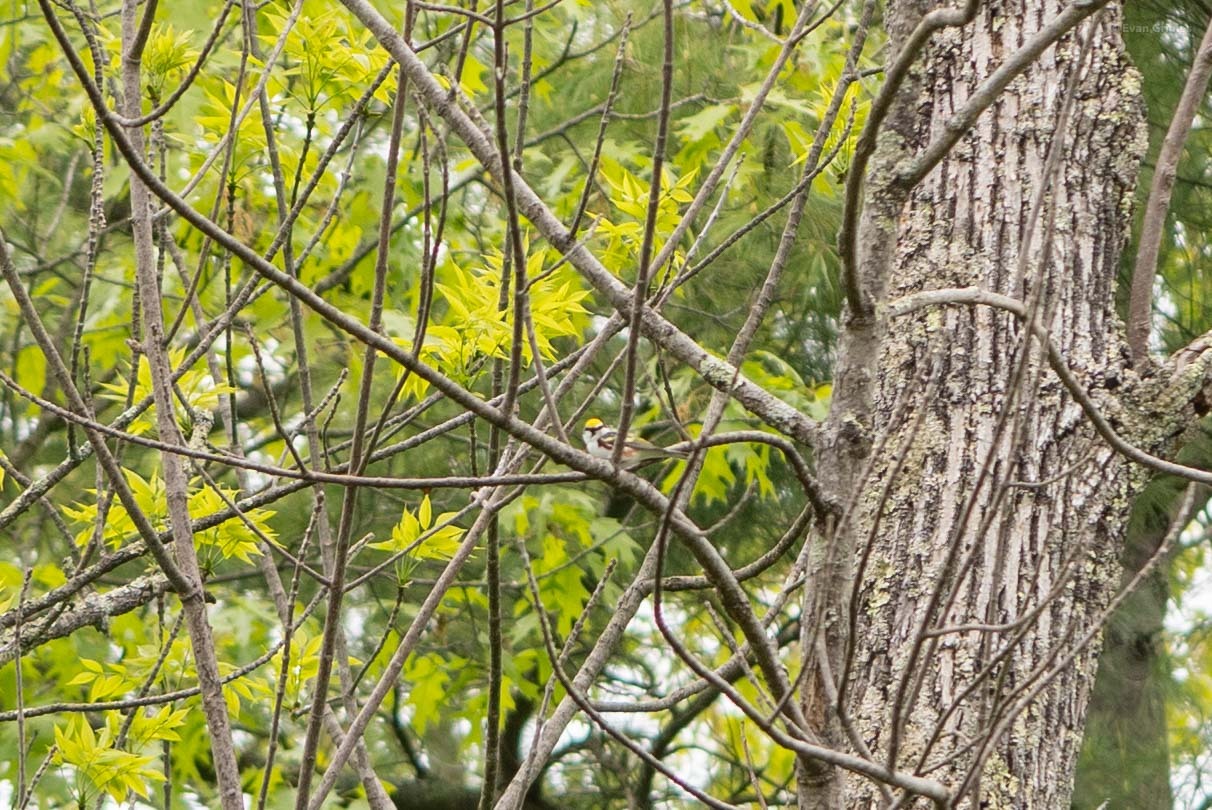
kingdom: Animalia
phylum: Chordata
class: Aves
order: Passeriformes
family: Parulidae
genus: Setophaga
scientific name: Setophaga pensylvanica
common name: Chestnut-sided warbler
